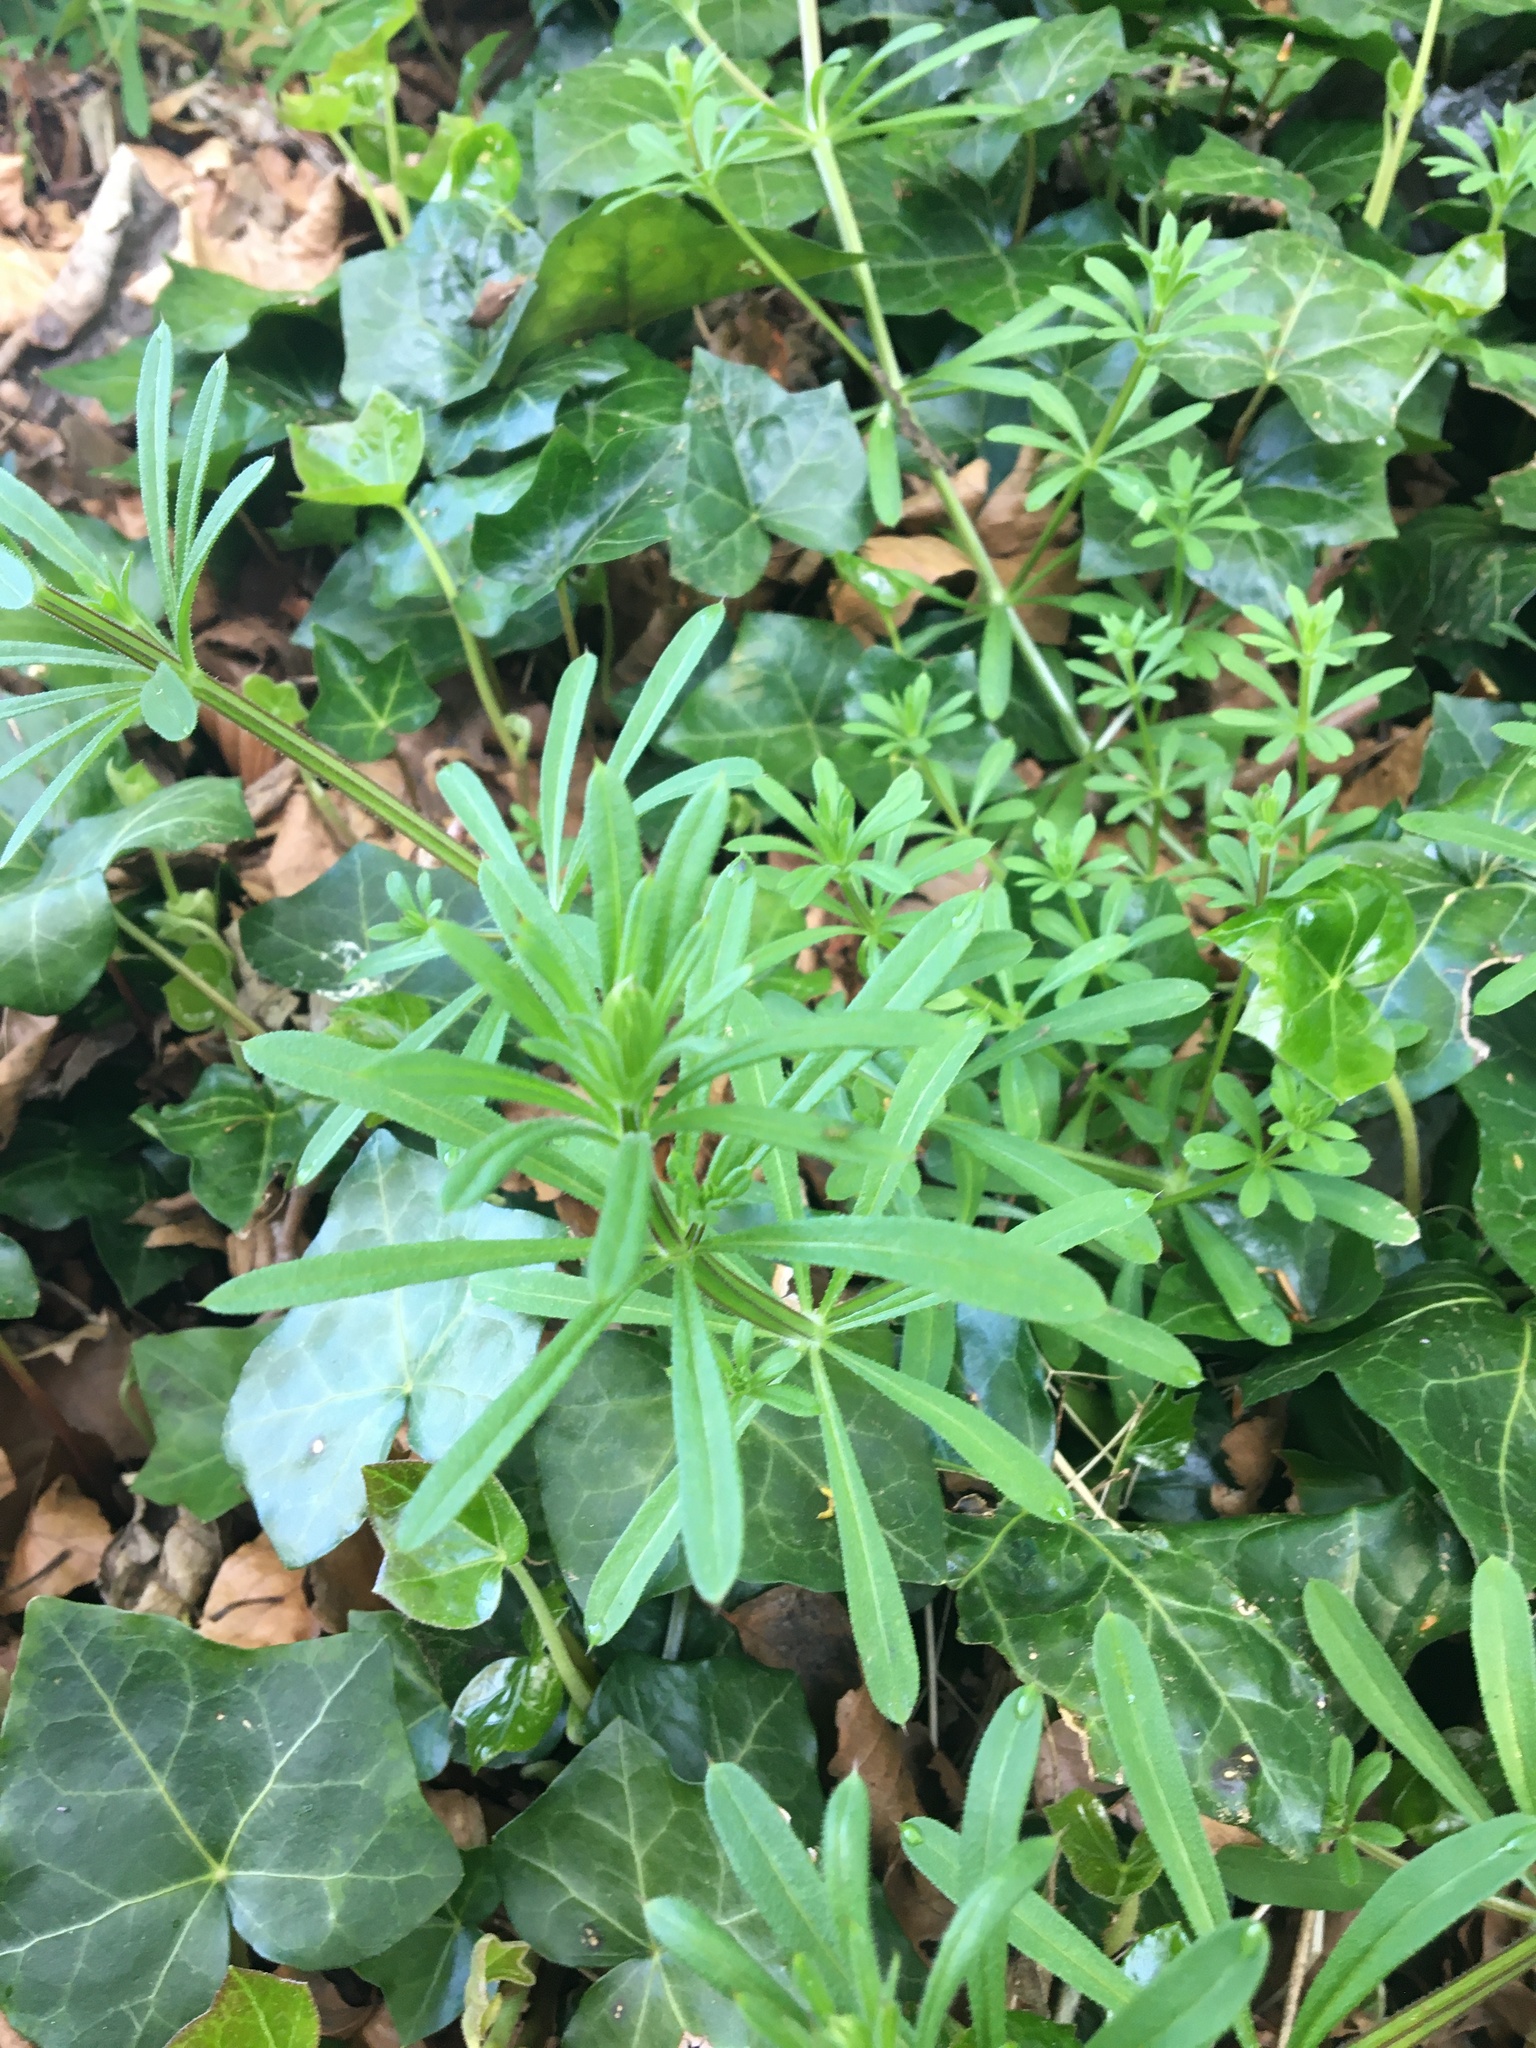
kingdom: Plantae
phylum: Tracheophyta
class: Magnoliopsida
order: Gentianales
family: Rubiaceae
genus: Galium
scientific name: Galium aparine
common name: Cleavers
